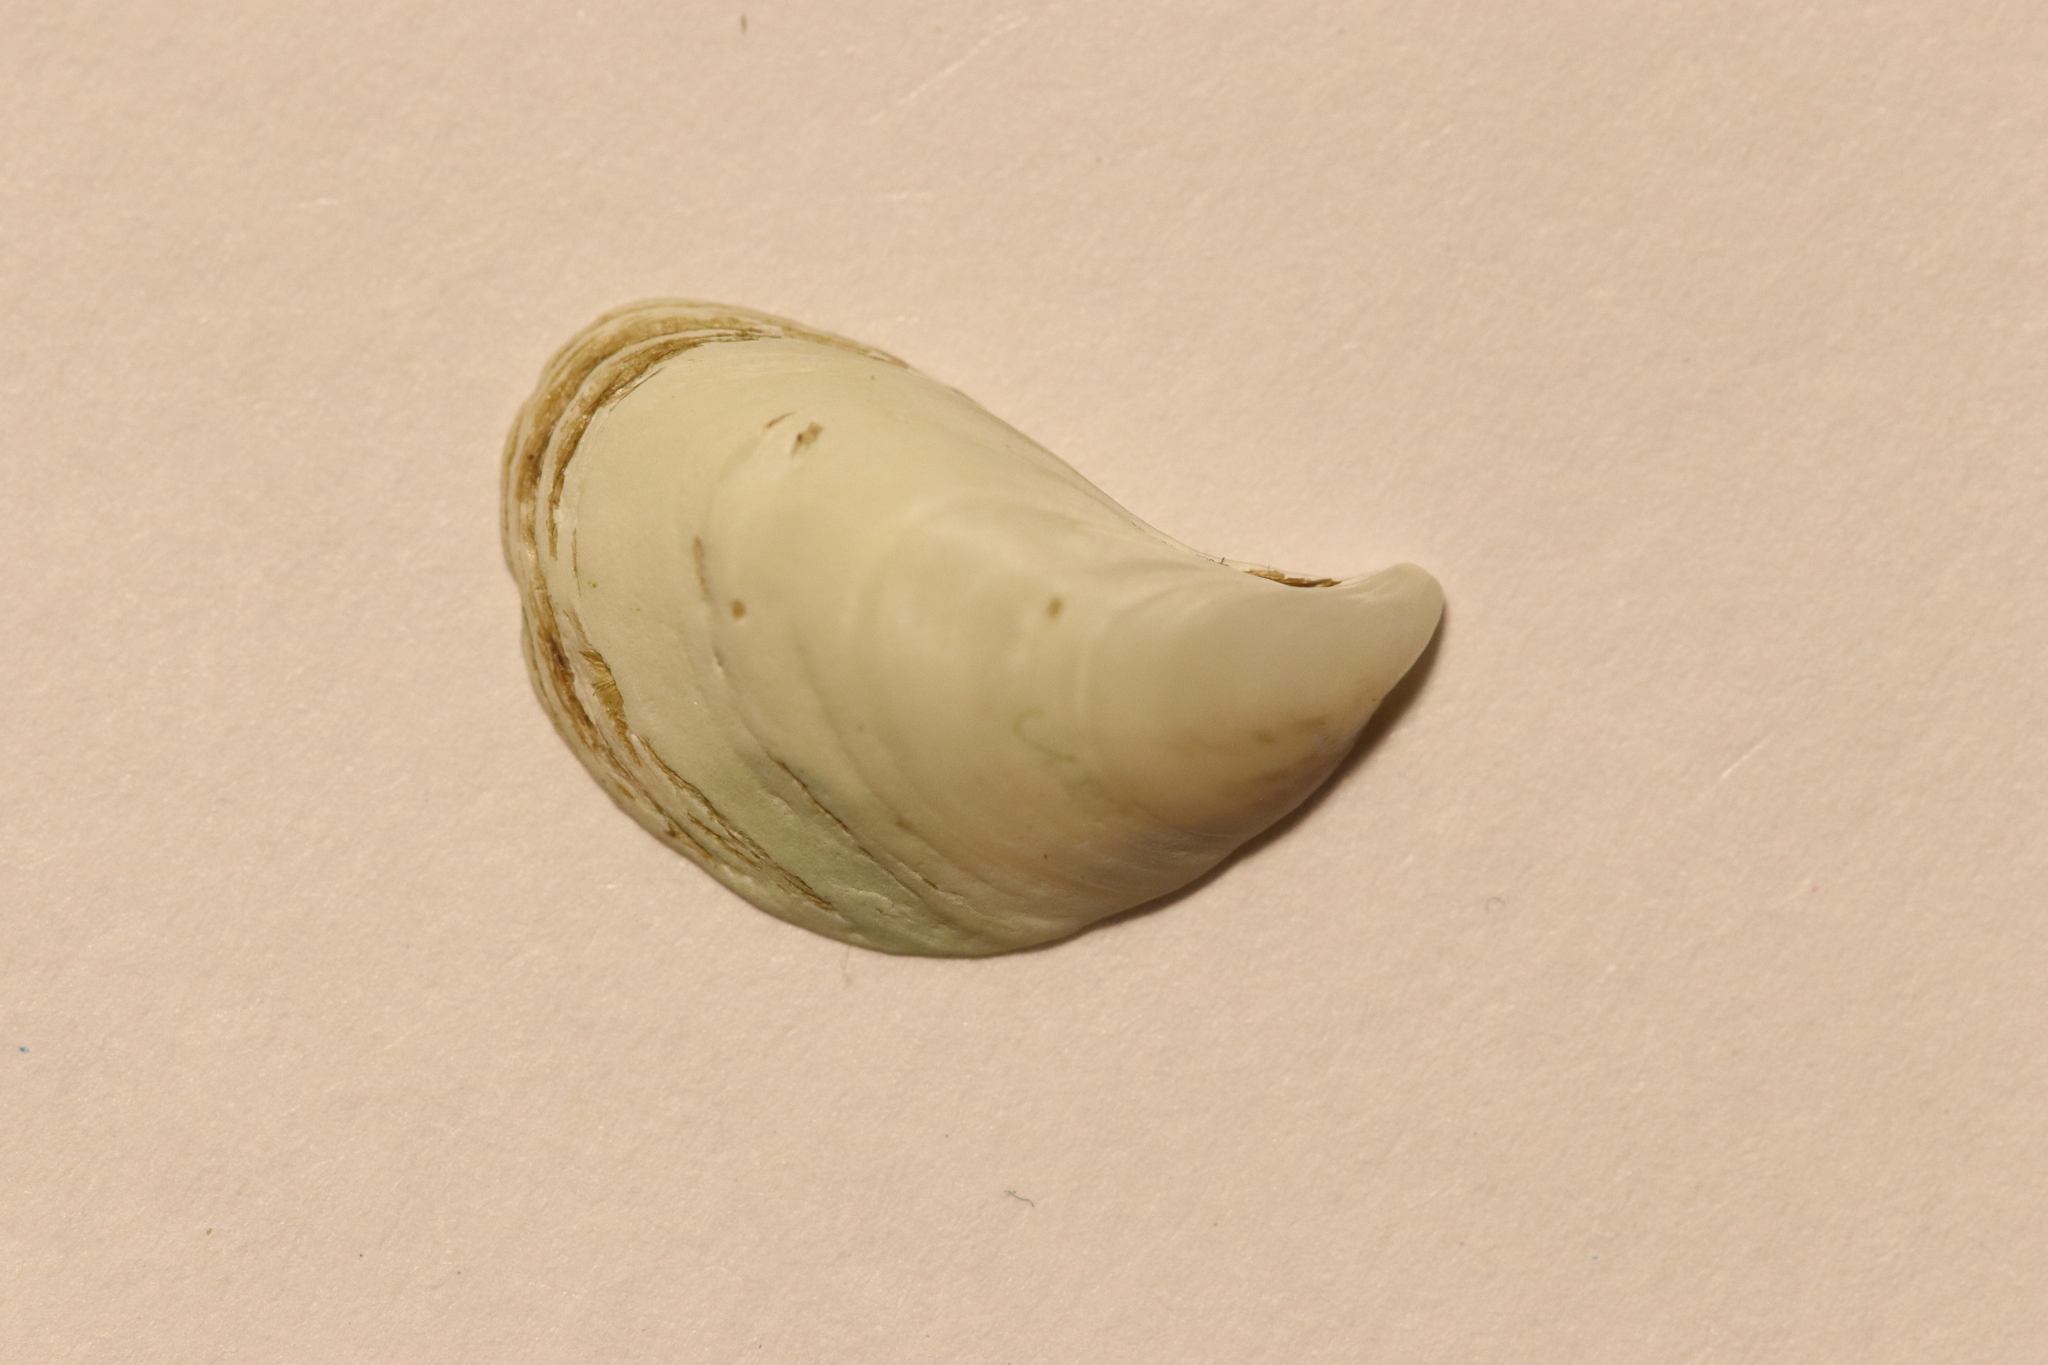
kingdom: Animalia
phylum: Mollusca
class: Bivalvia
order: Myida
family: Dreissenidae
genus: Dreissena
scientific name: Dreissena bugensis
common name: Quagga mussel
